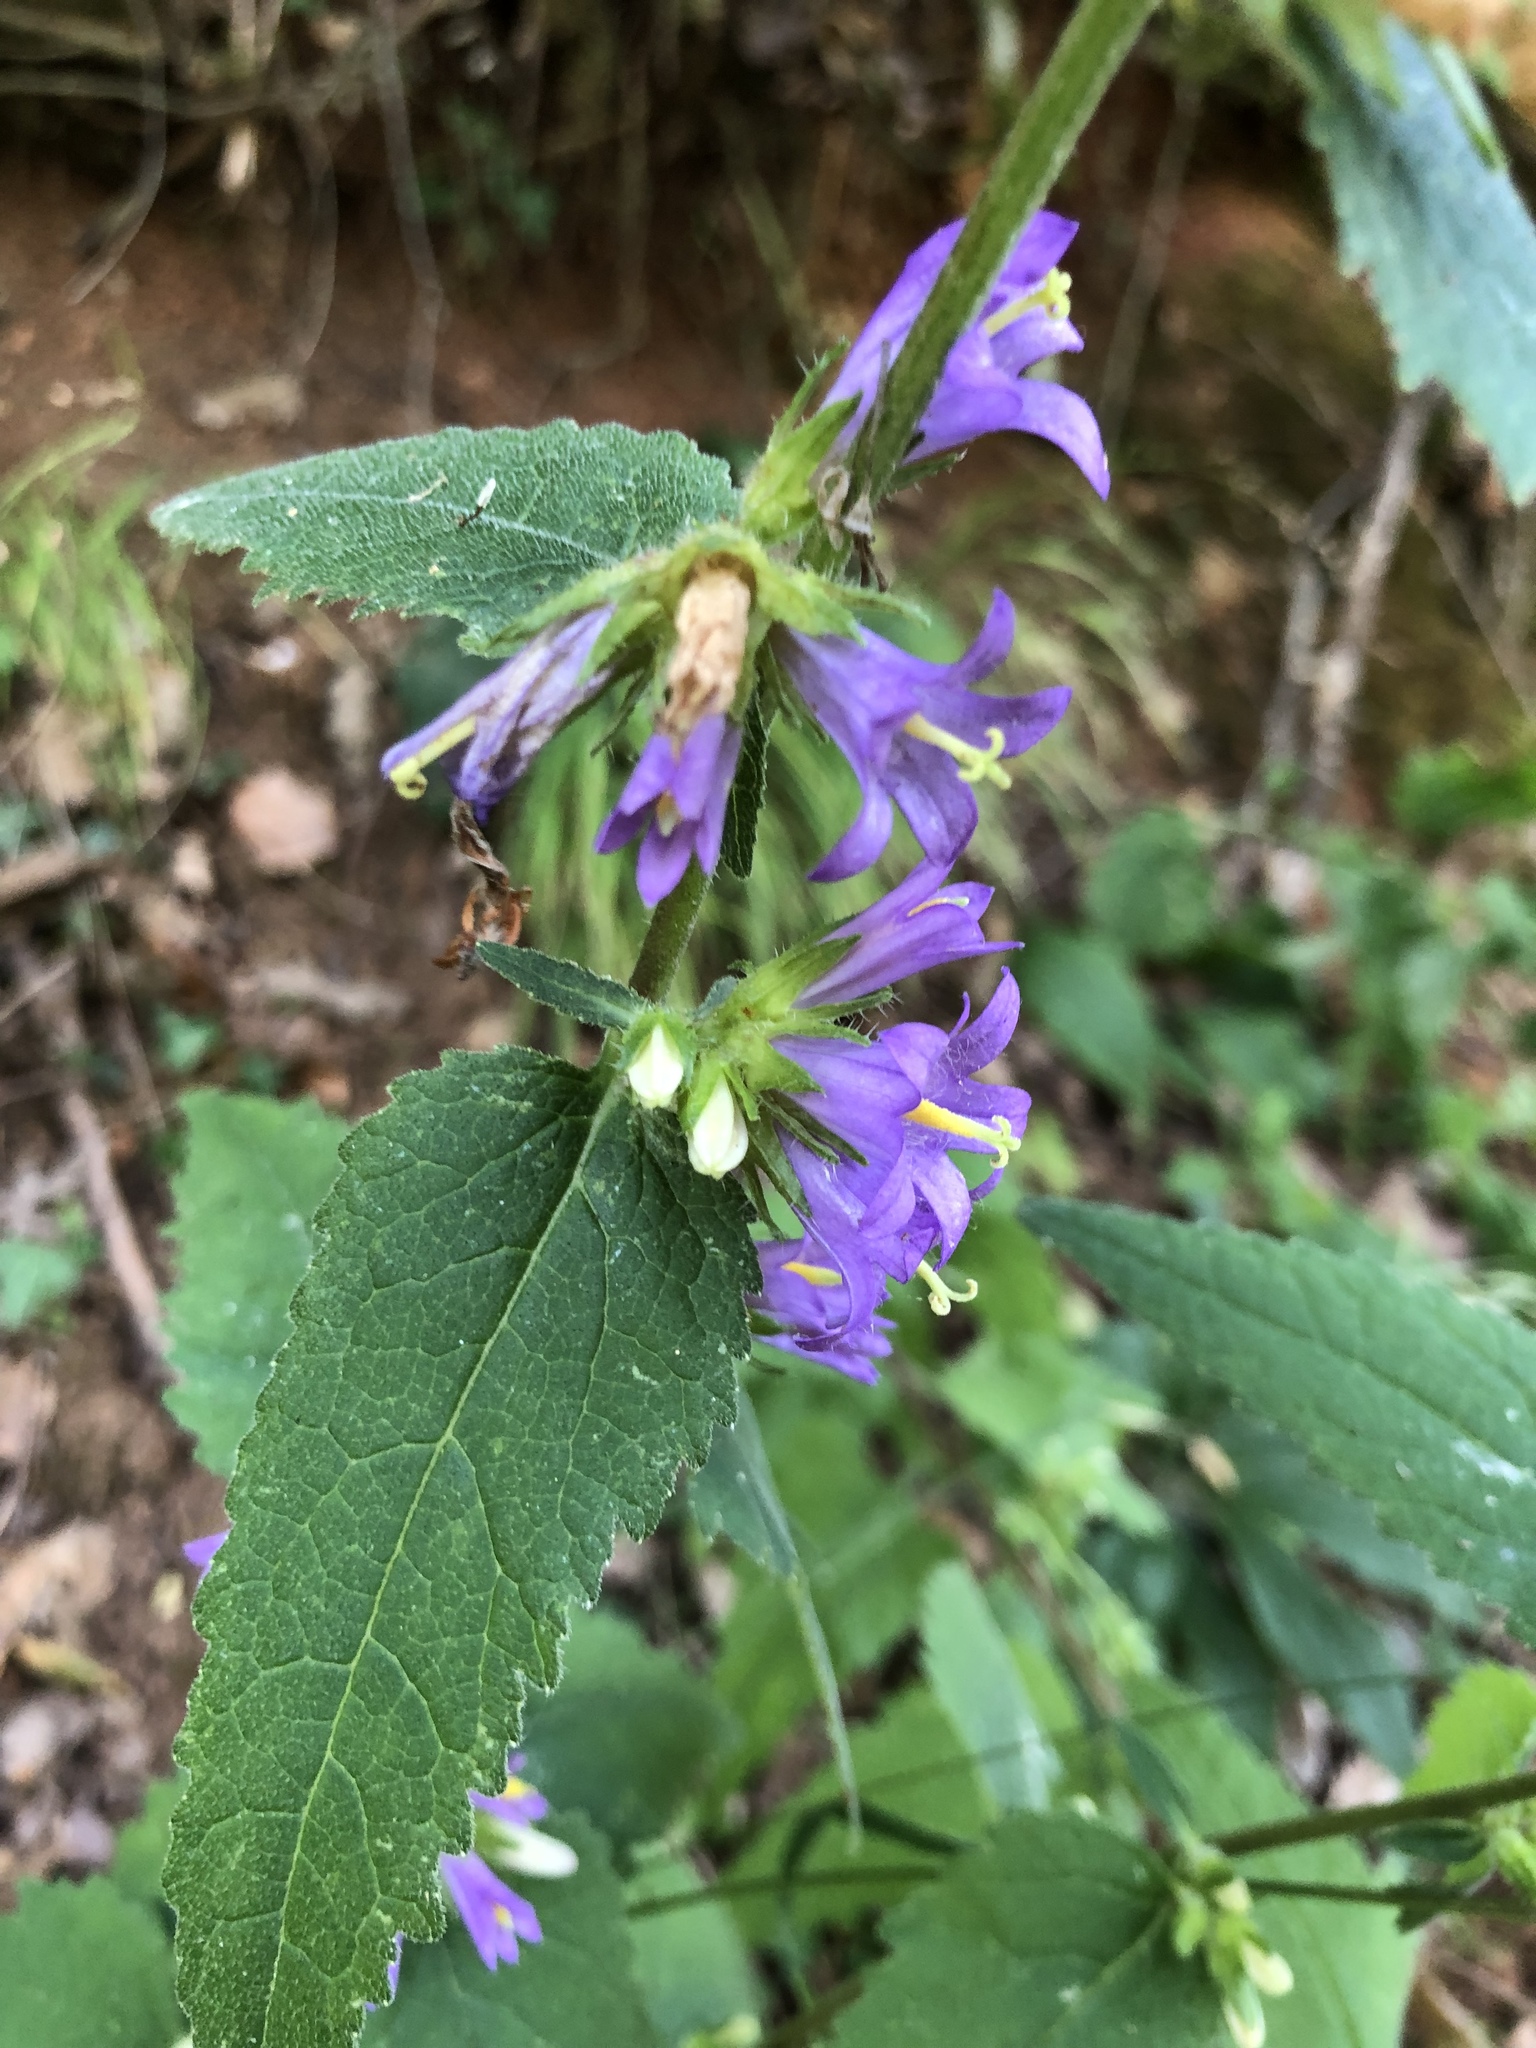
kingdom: Plantae
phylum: Tracheophyta
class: Magnoliopsida
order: Asterales
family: Campanulaceae
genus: Campanula
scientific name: Campanula trachelium
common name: Nettle-leaved bellflower
